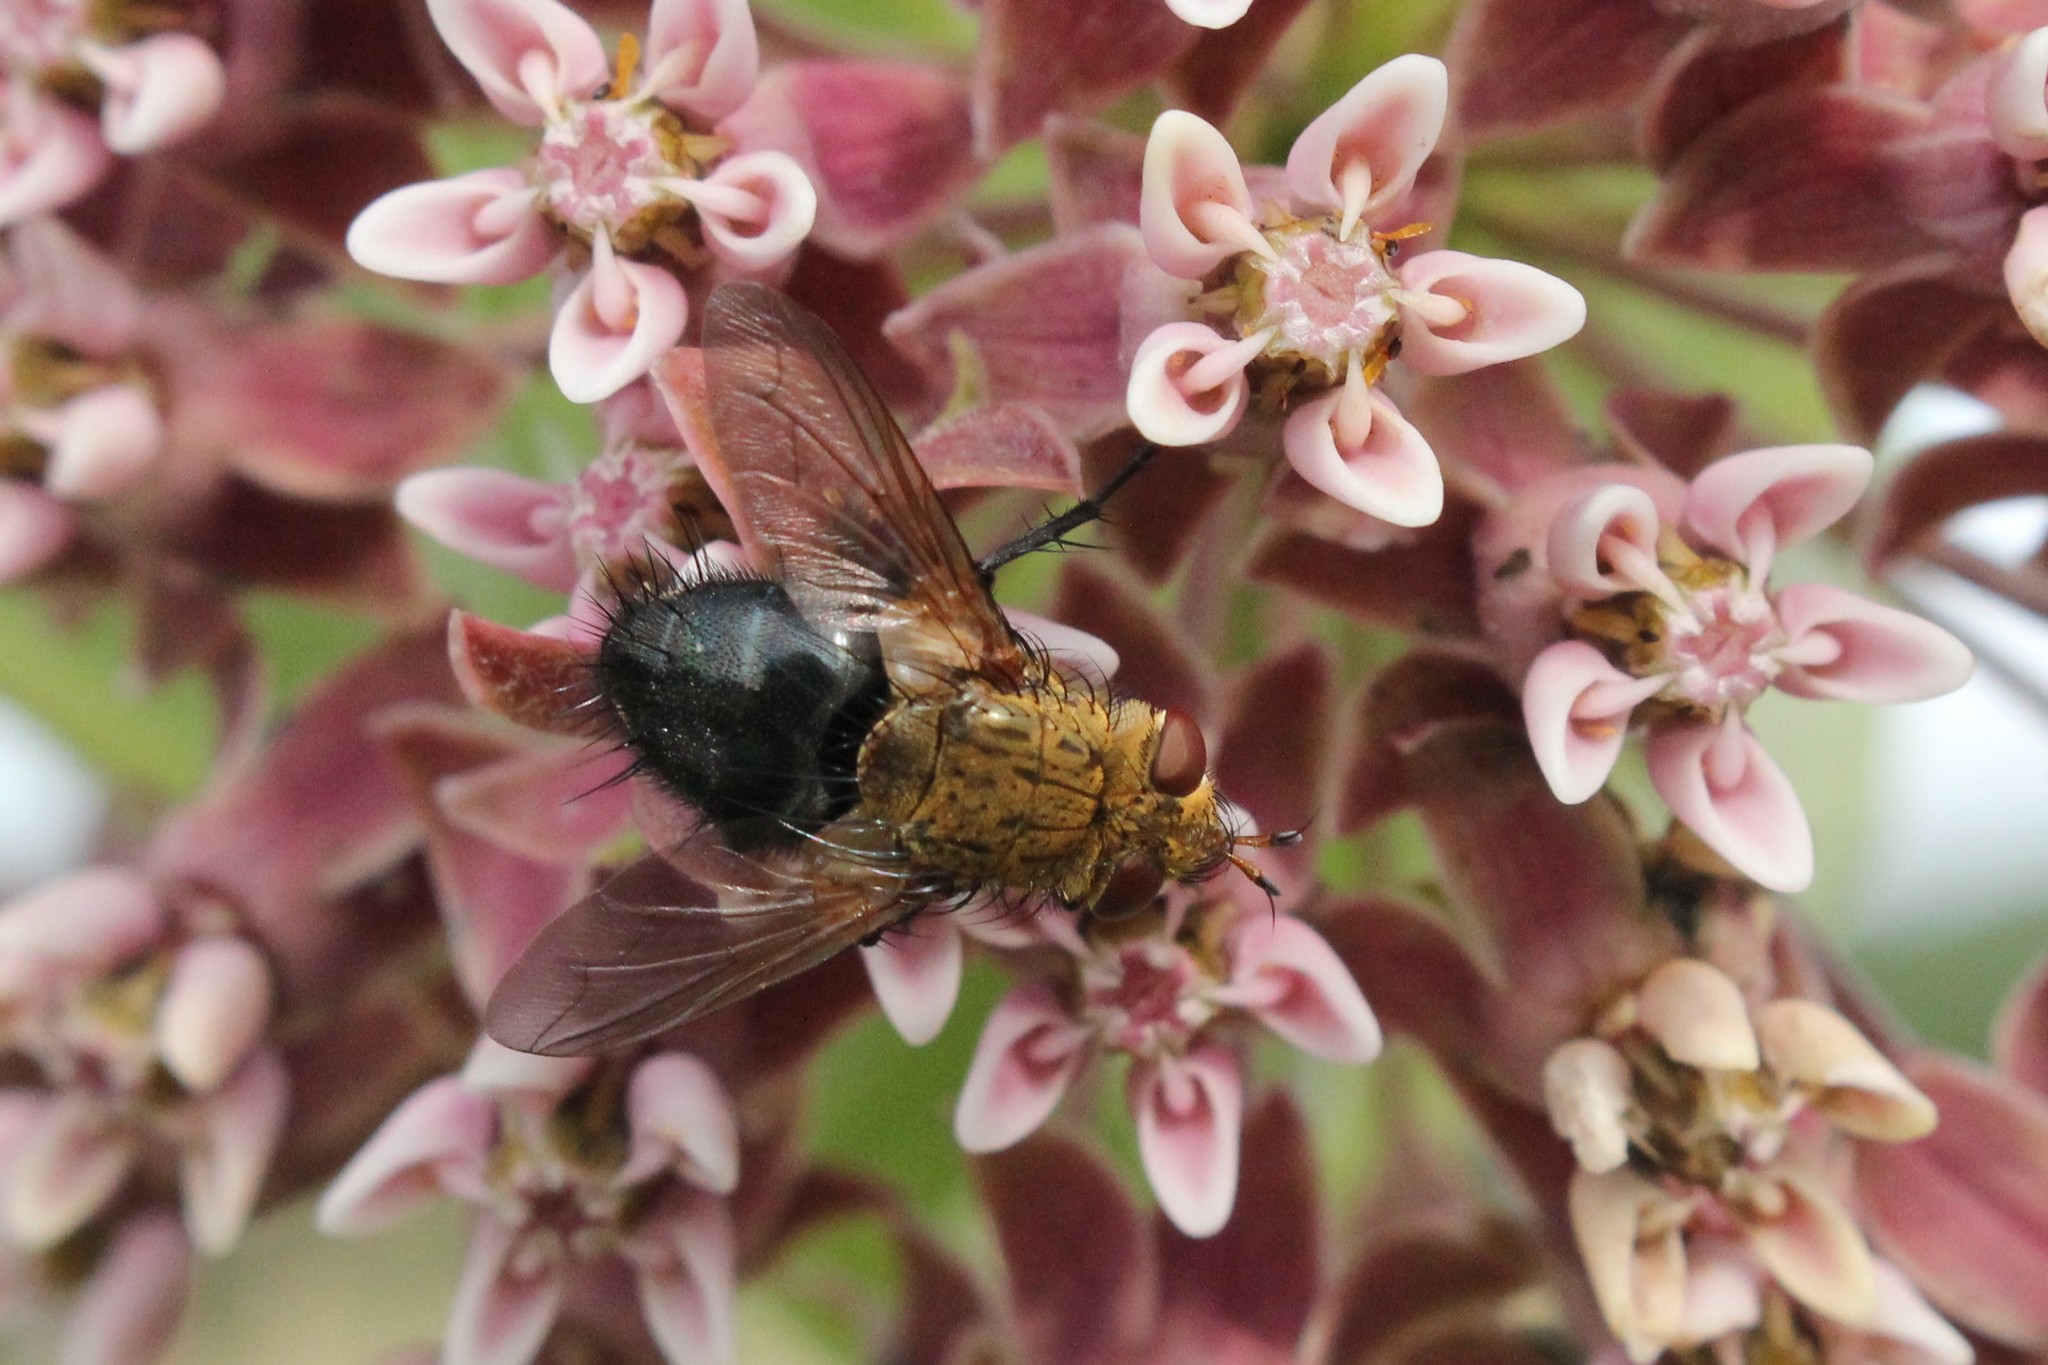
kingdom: Animalia
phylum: Arthropoda
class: Insecta
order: Diptera
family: Tachinidae
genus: Archytas
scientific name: Archytas apicifer
